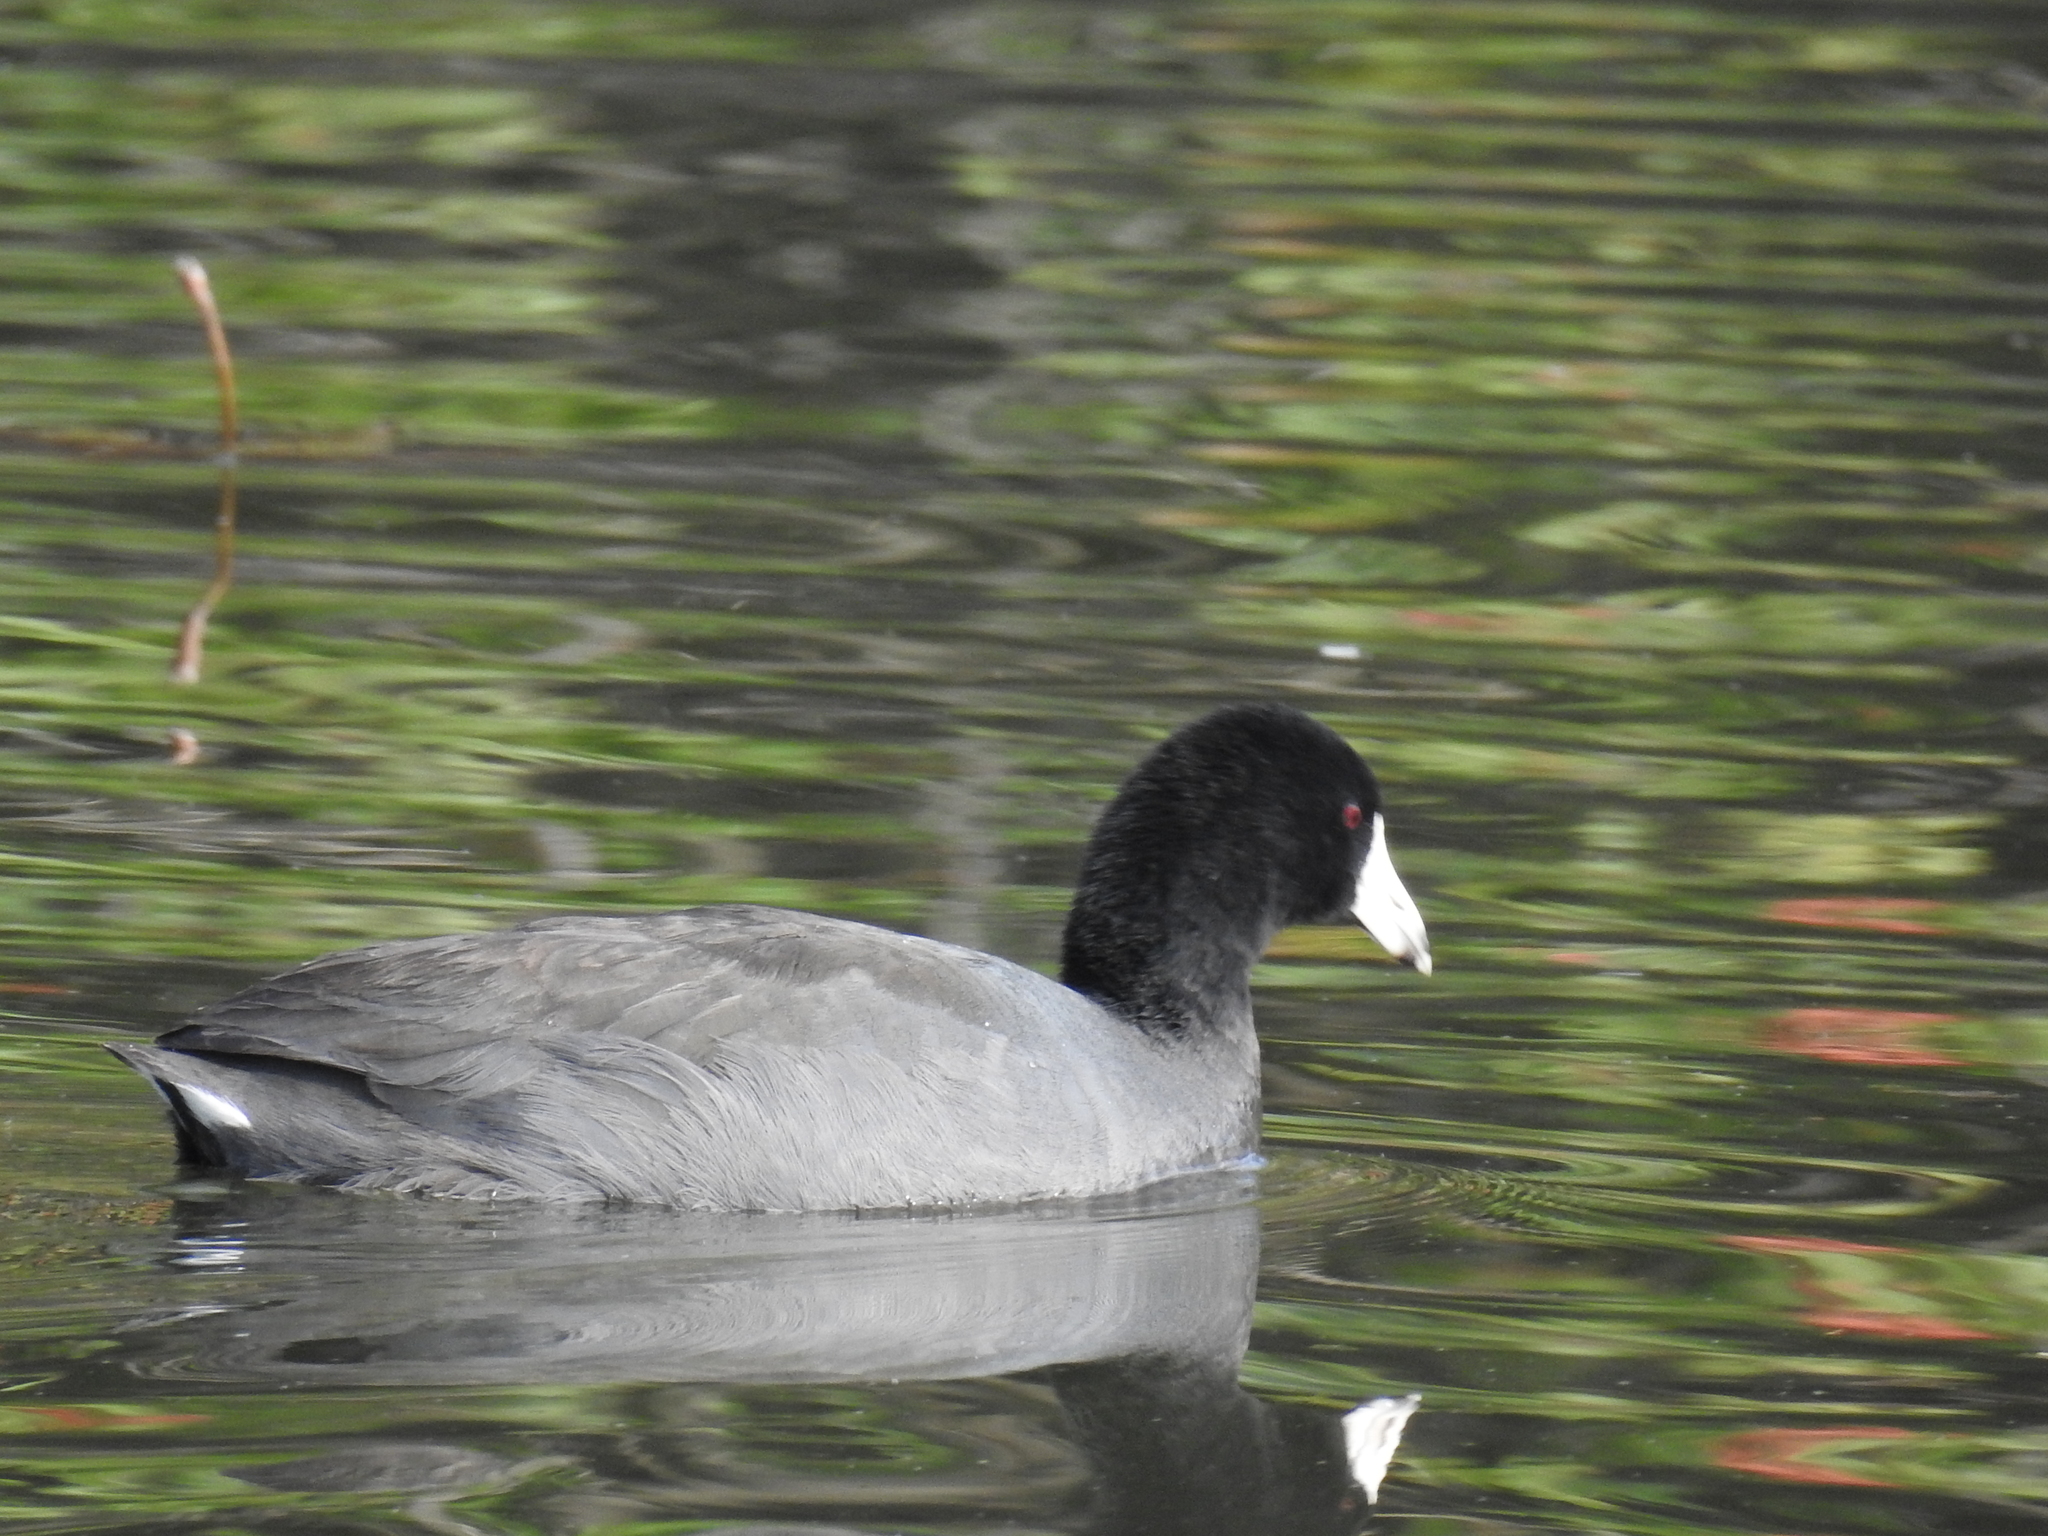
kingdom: Animalia
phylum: Chordata
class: Aves
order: Gruiformes
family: Rallidae
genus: Fulica
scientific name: Fulica americana
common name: American coot
